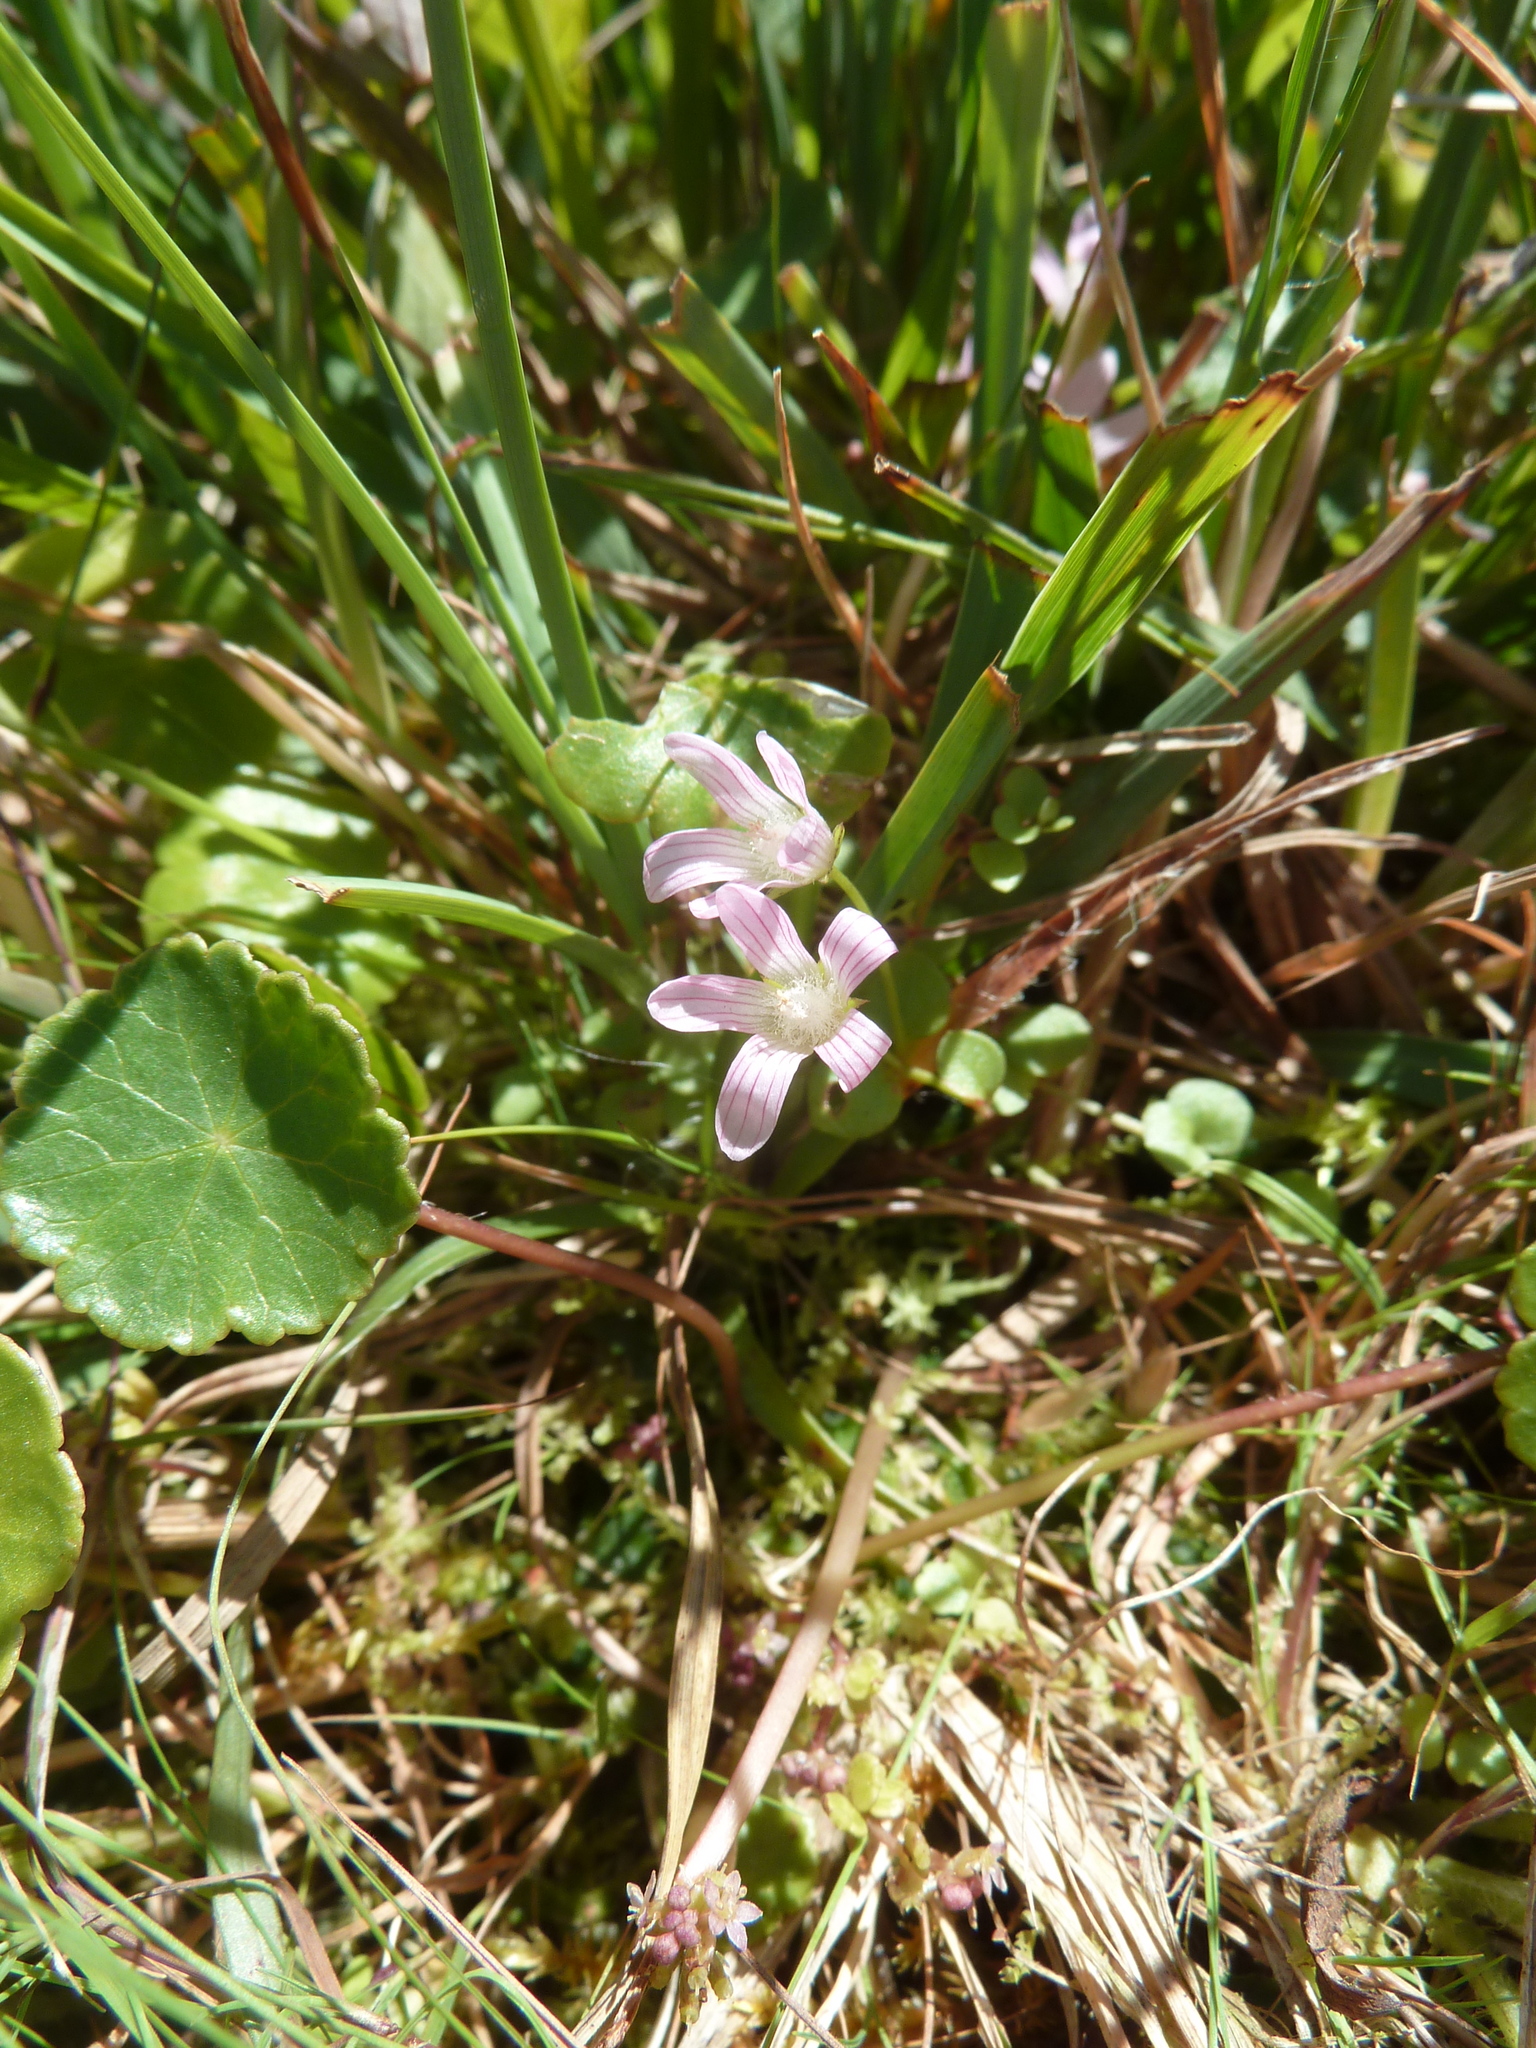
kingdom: Plantae
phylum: Tracheophyta
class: Magnoliopsida
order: Ericales
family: Primulaceae
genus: Lysimachia
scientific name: Lysimachia tenella
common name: European bog pimpernel
